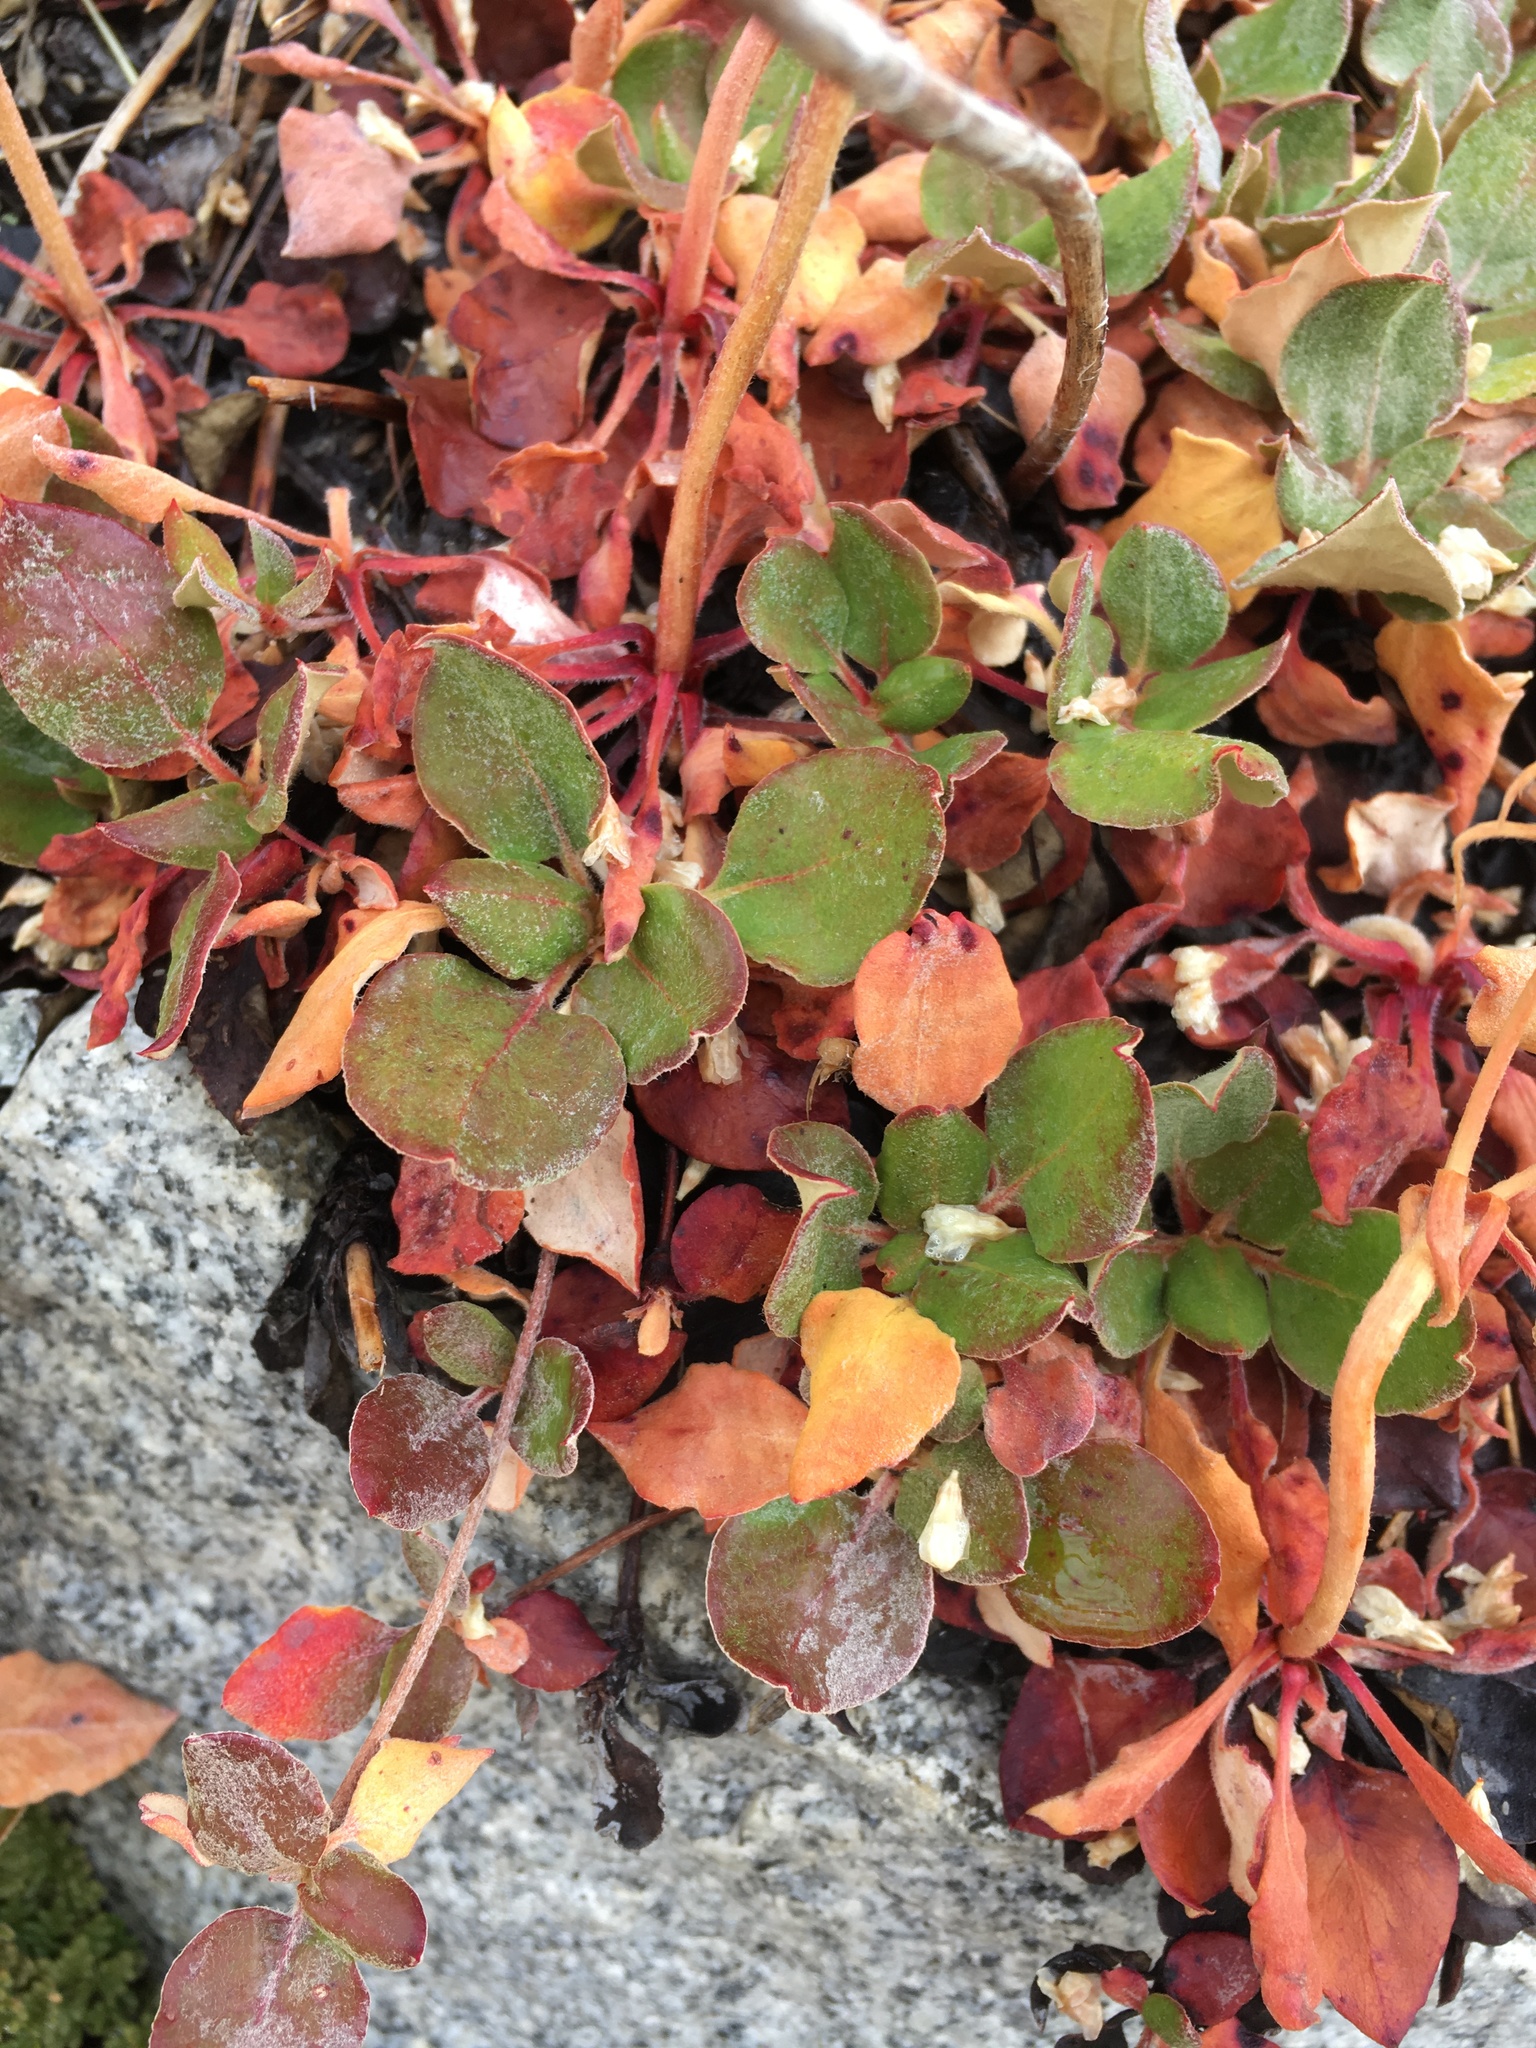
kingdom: Plantae
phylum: Tracheophyta
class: Magnoliopsida
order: Caryophyllales
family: Polygonaceae
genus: Eriogonum
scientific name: Eriogonum ursinum
